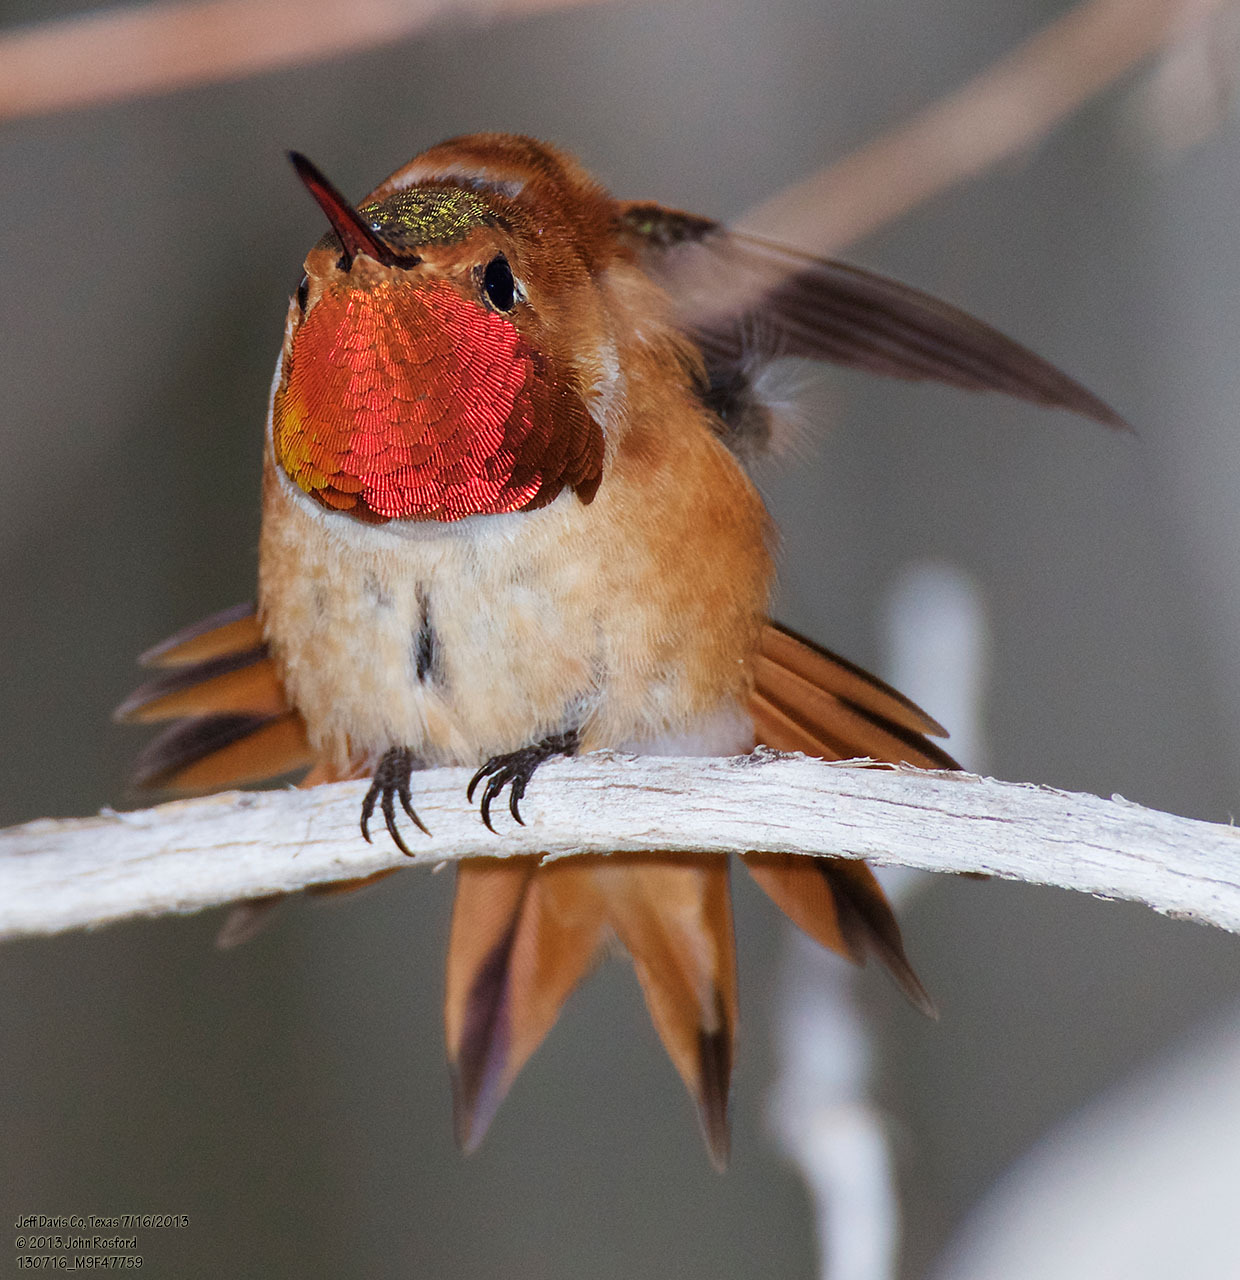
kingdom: Animalia
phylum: Chordata
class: Aves
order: Apodiformes
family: Trochilidae
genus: Selasphorus
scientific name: Selasphorus rufus
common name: Rufous hummingbird
